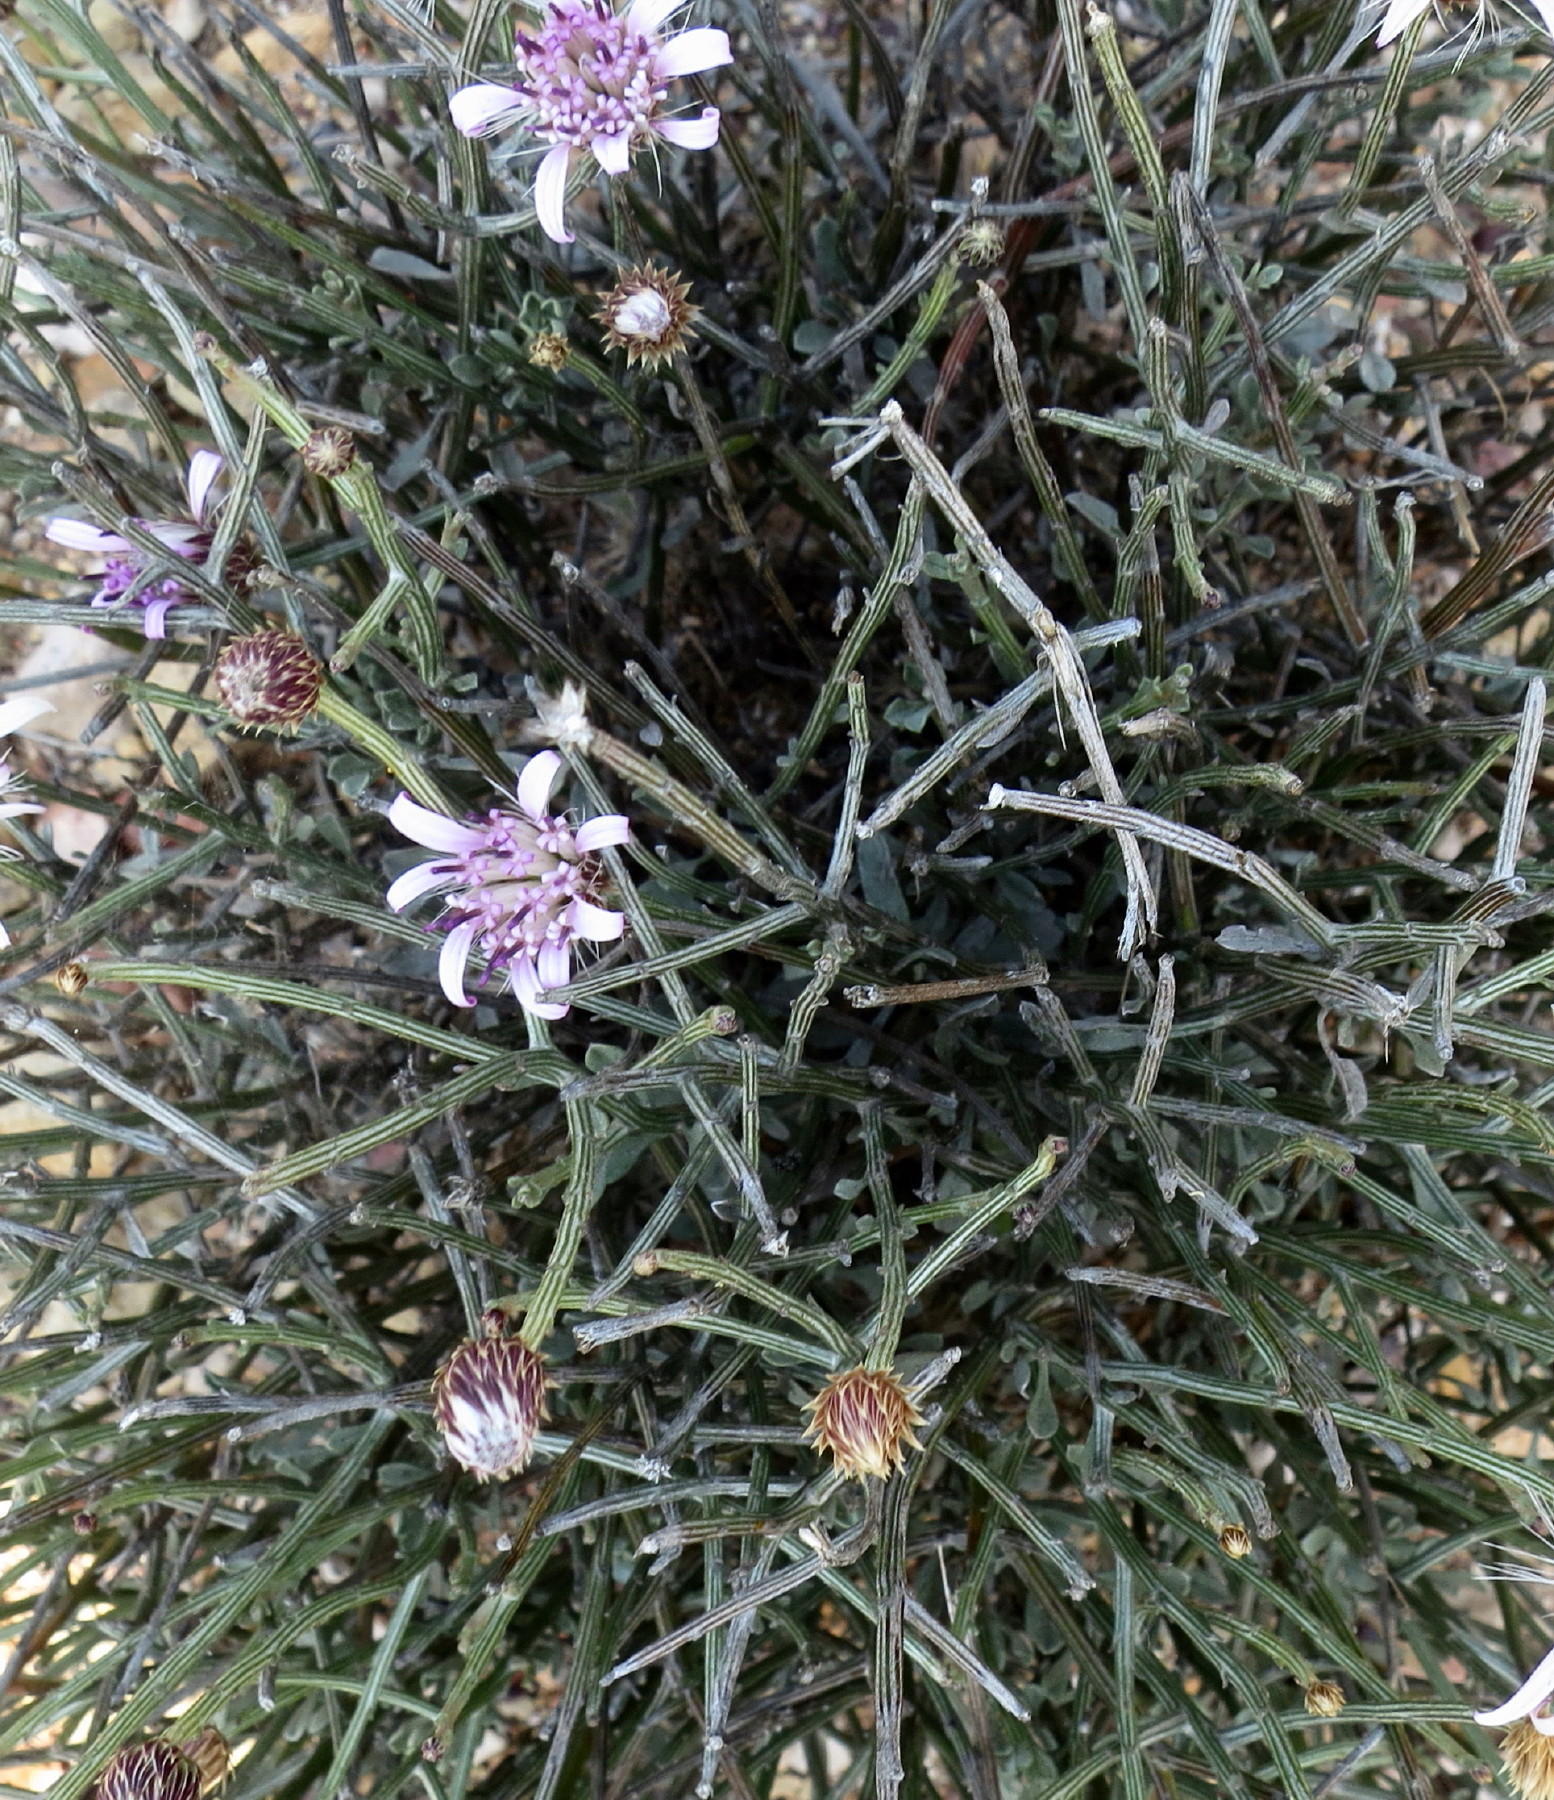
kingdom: Plantae
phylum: Tracheophyta
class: Magnoliopsida
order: Asterales
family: Asteraceae
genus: Dicoma
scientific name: Dicoma picta
